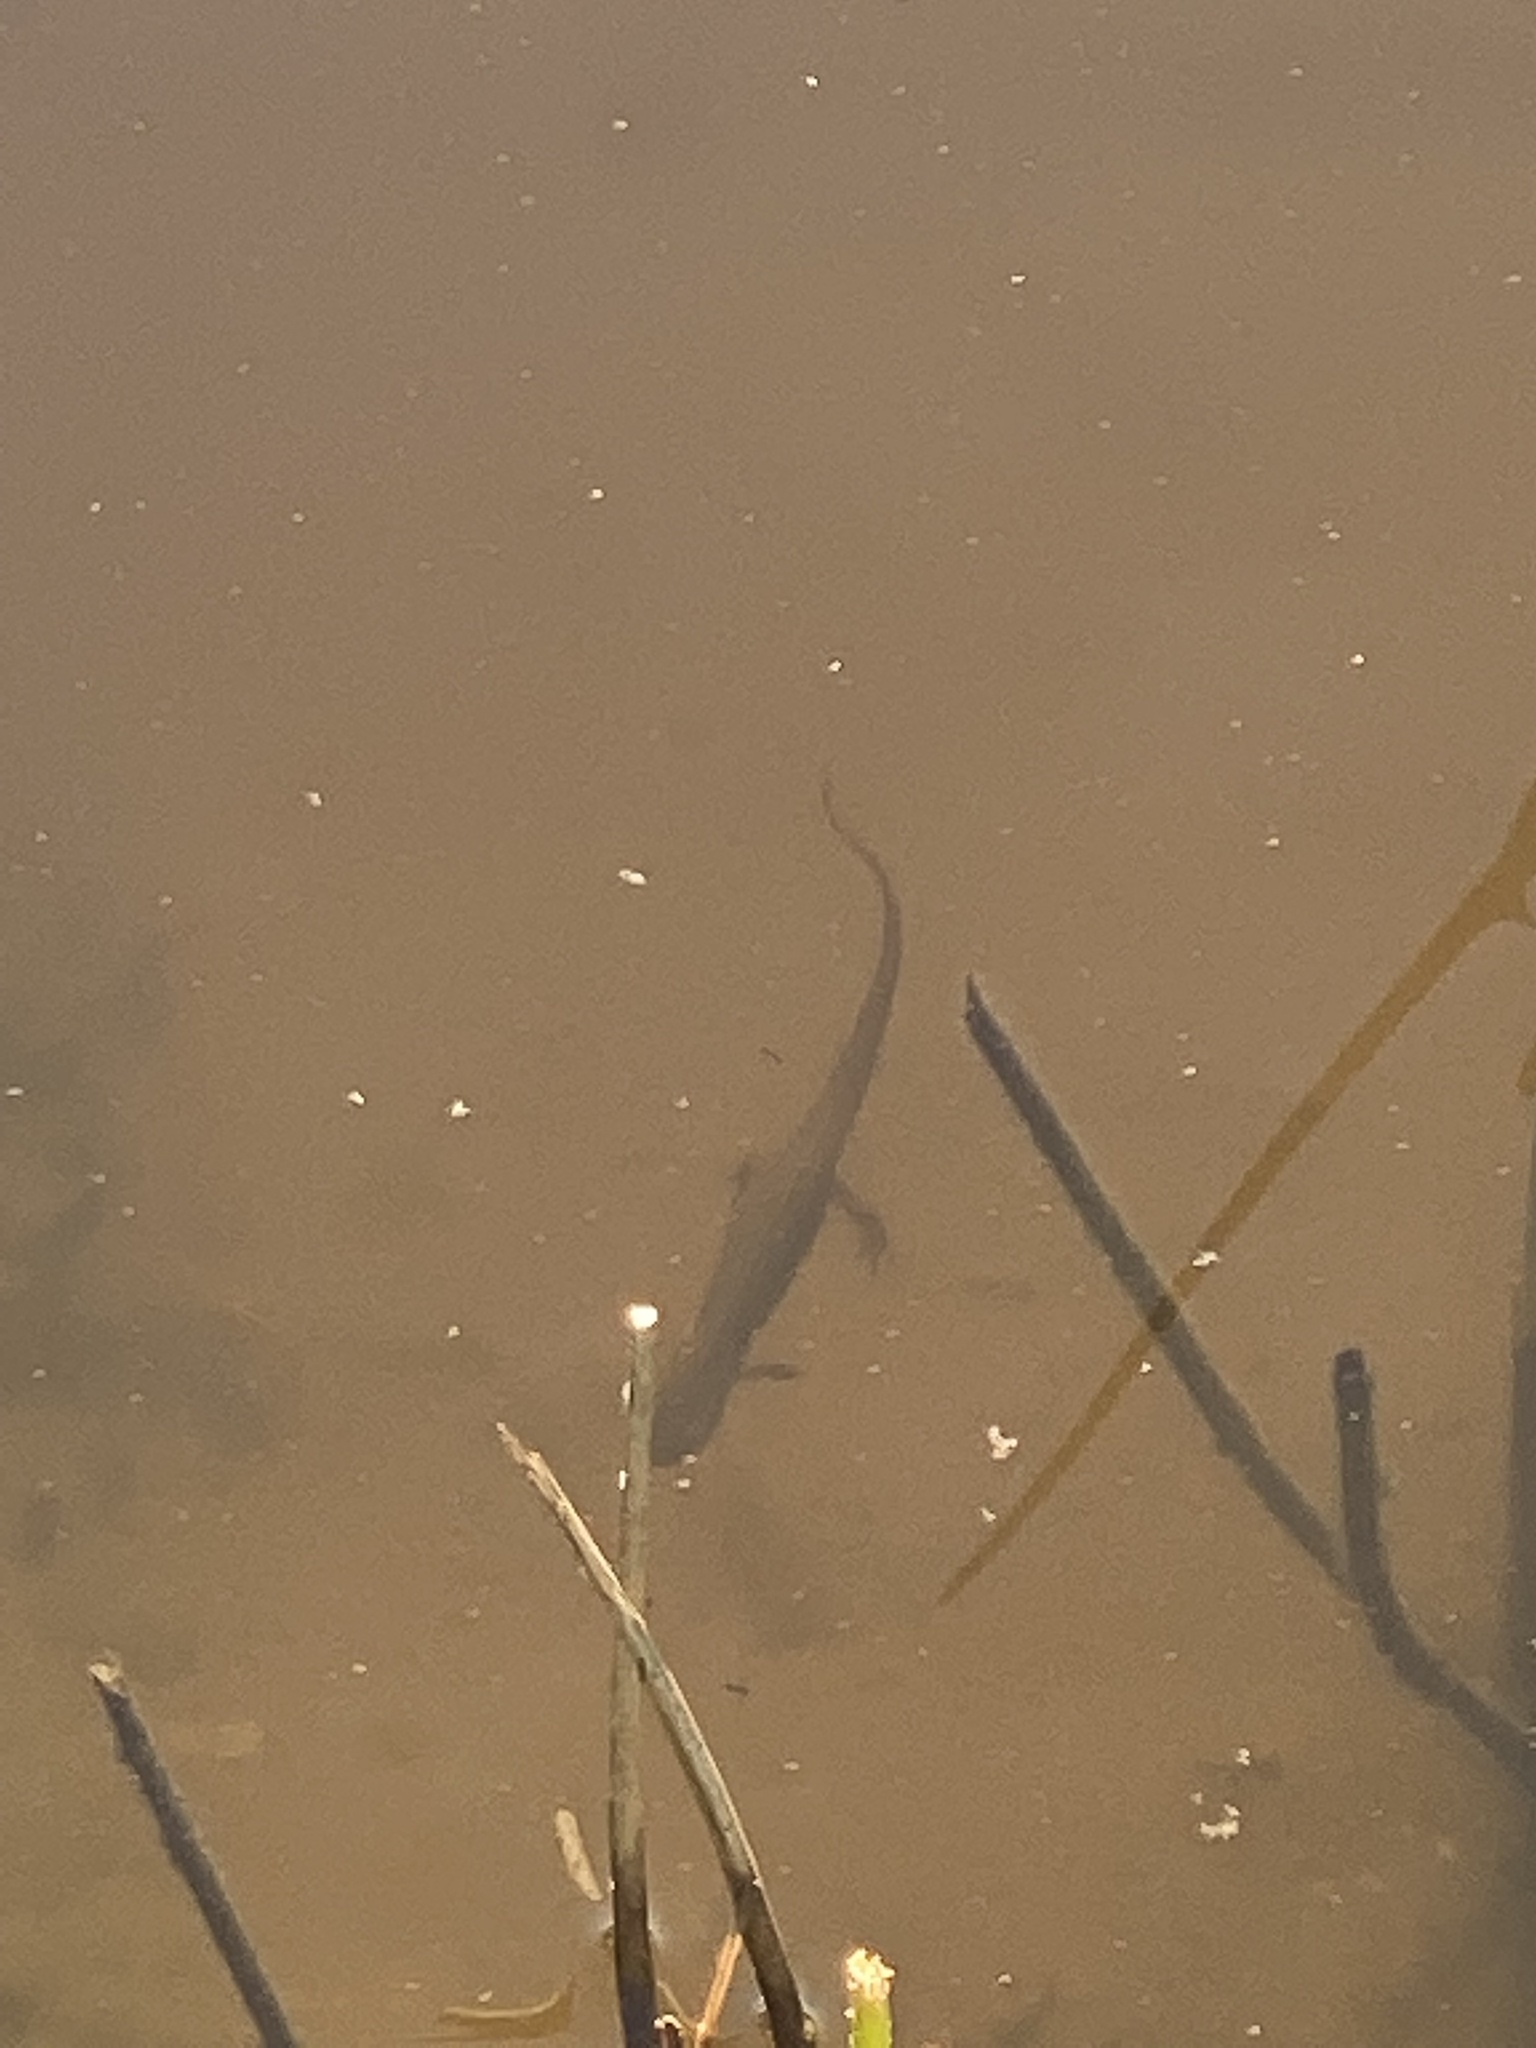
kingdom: Animalia
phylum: Chordata
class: Amphibia
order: Caudata
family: Salamandridae
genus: Notophthalmus
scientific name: Notophthalmus viridescens
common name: Eastern newt
